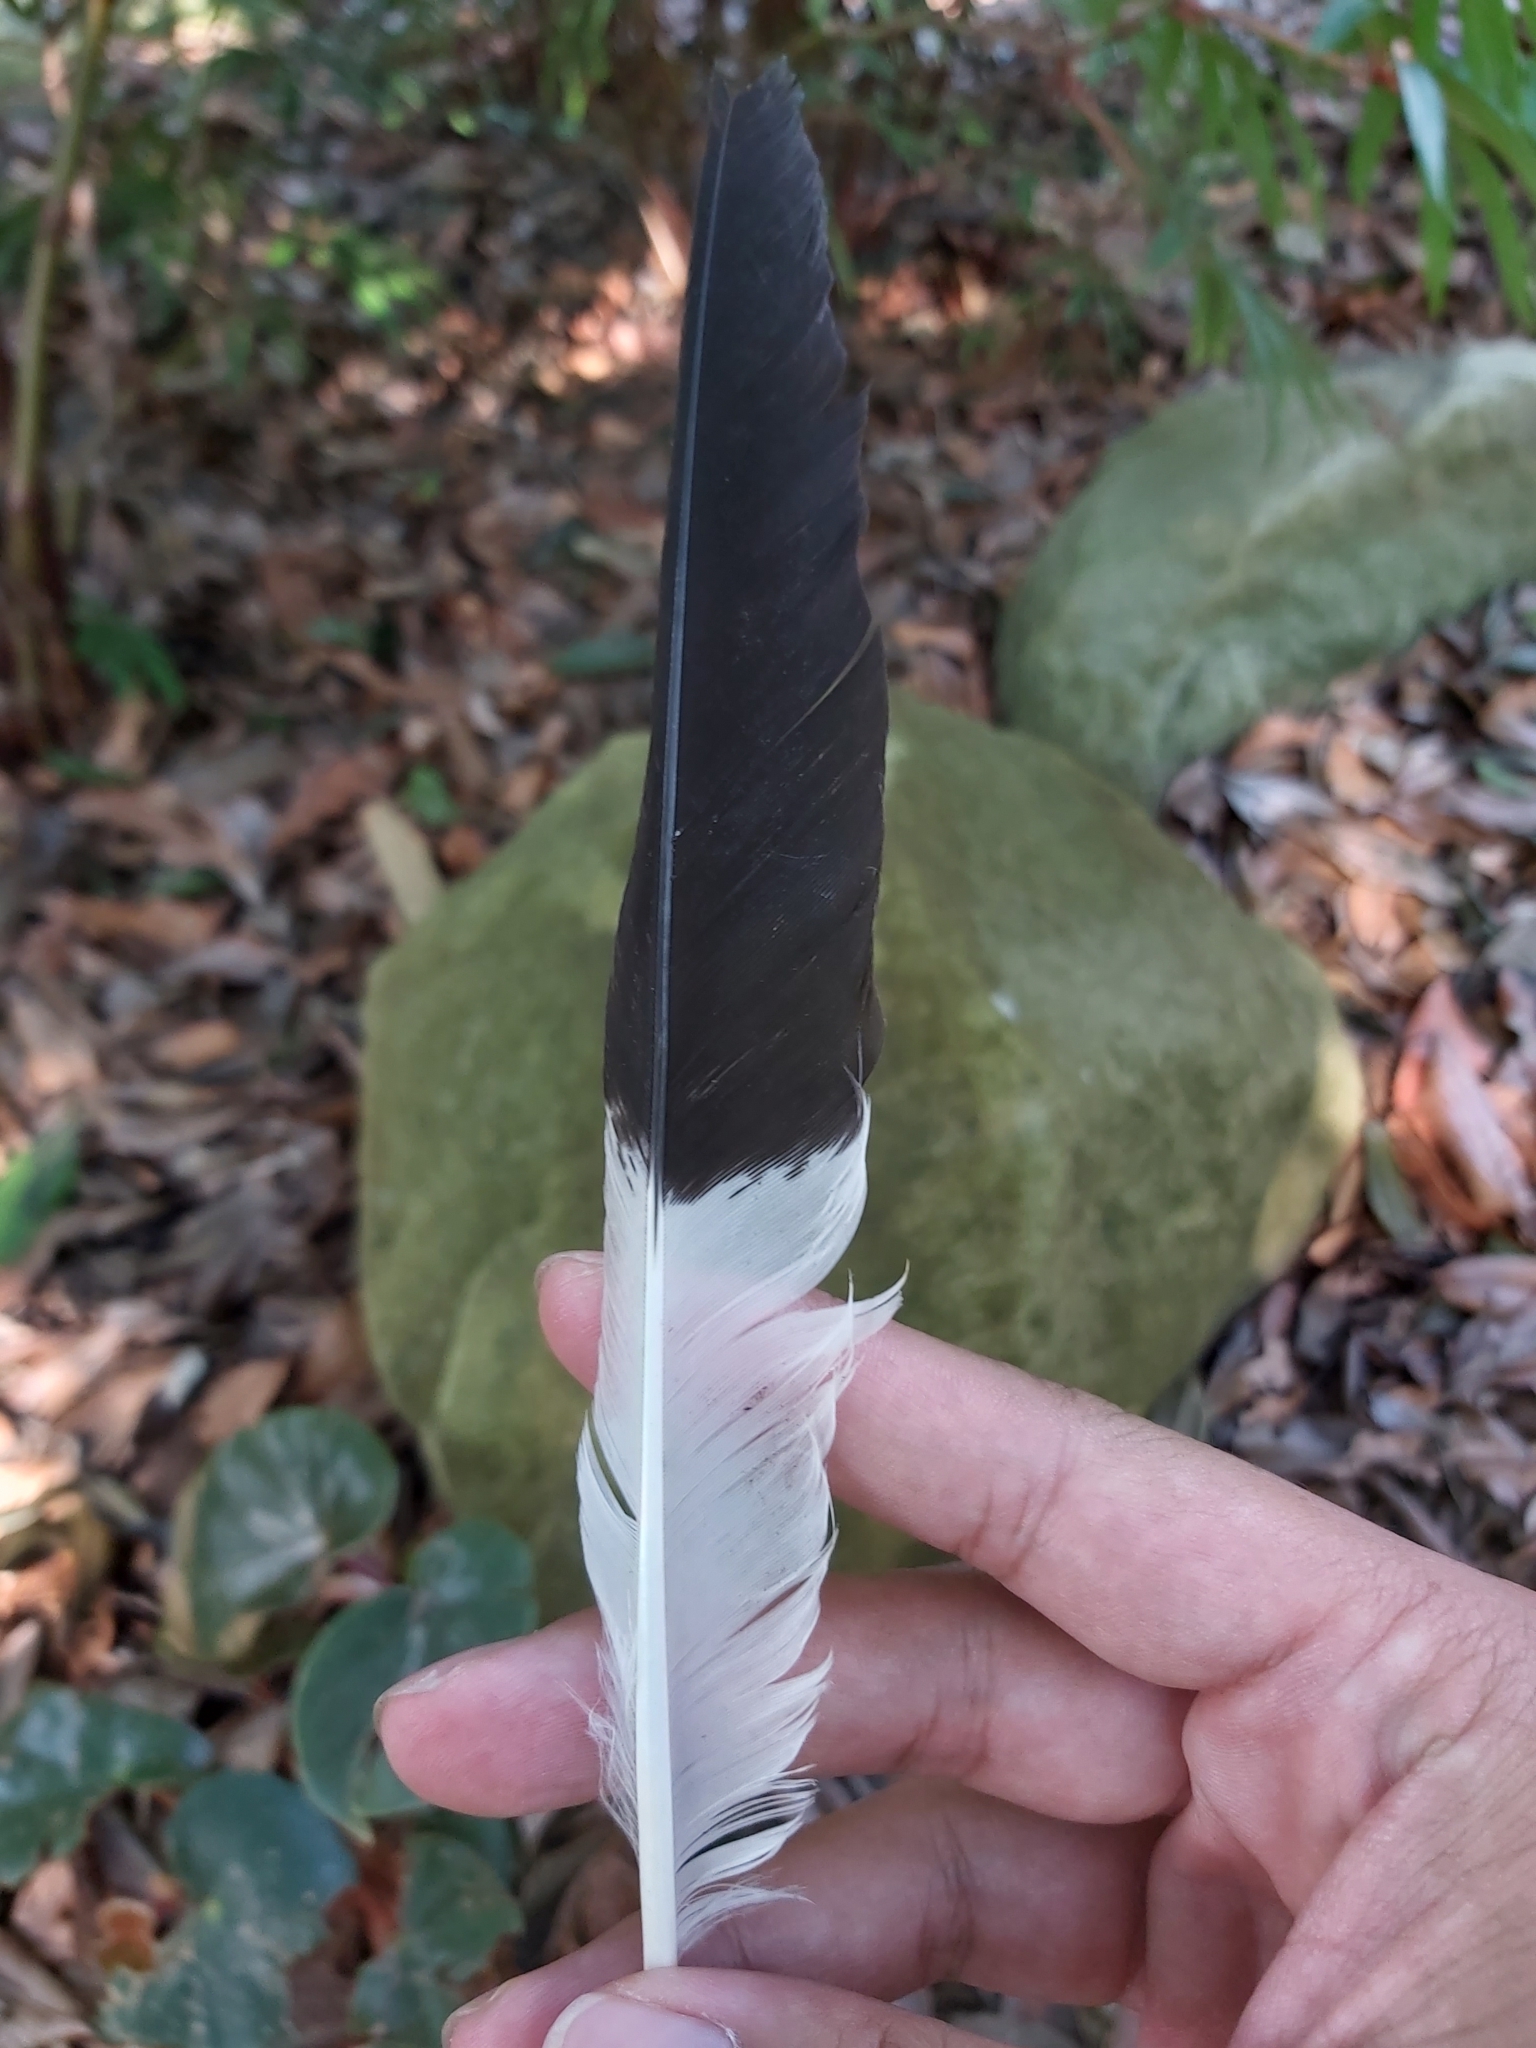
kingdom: Animalia
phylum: Chordata
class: Aves
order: Passeriformes
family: Cracticidae
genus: Strepera
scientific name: Strepera graculina
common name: Pied currawong
